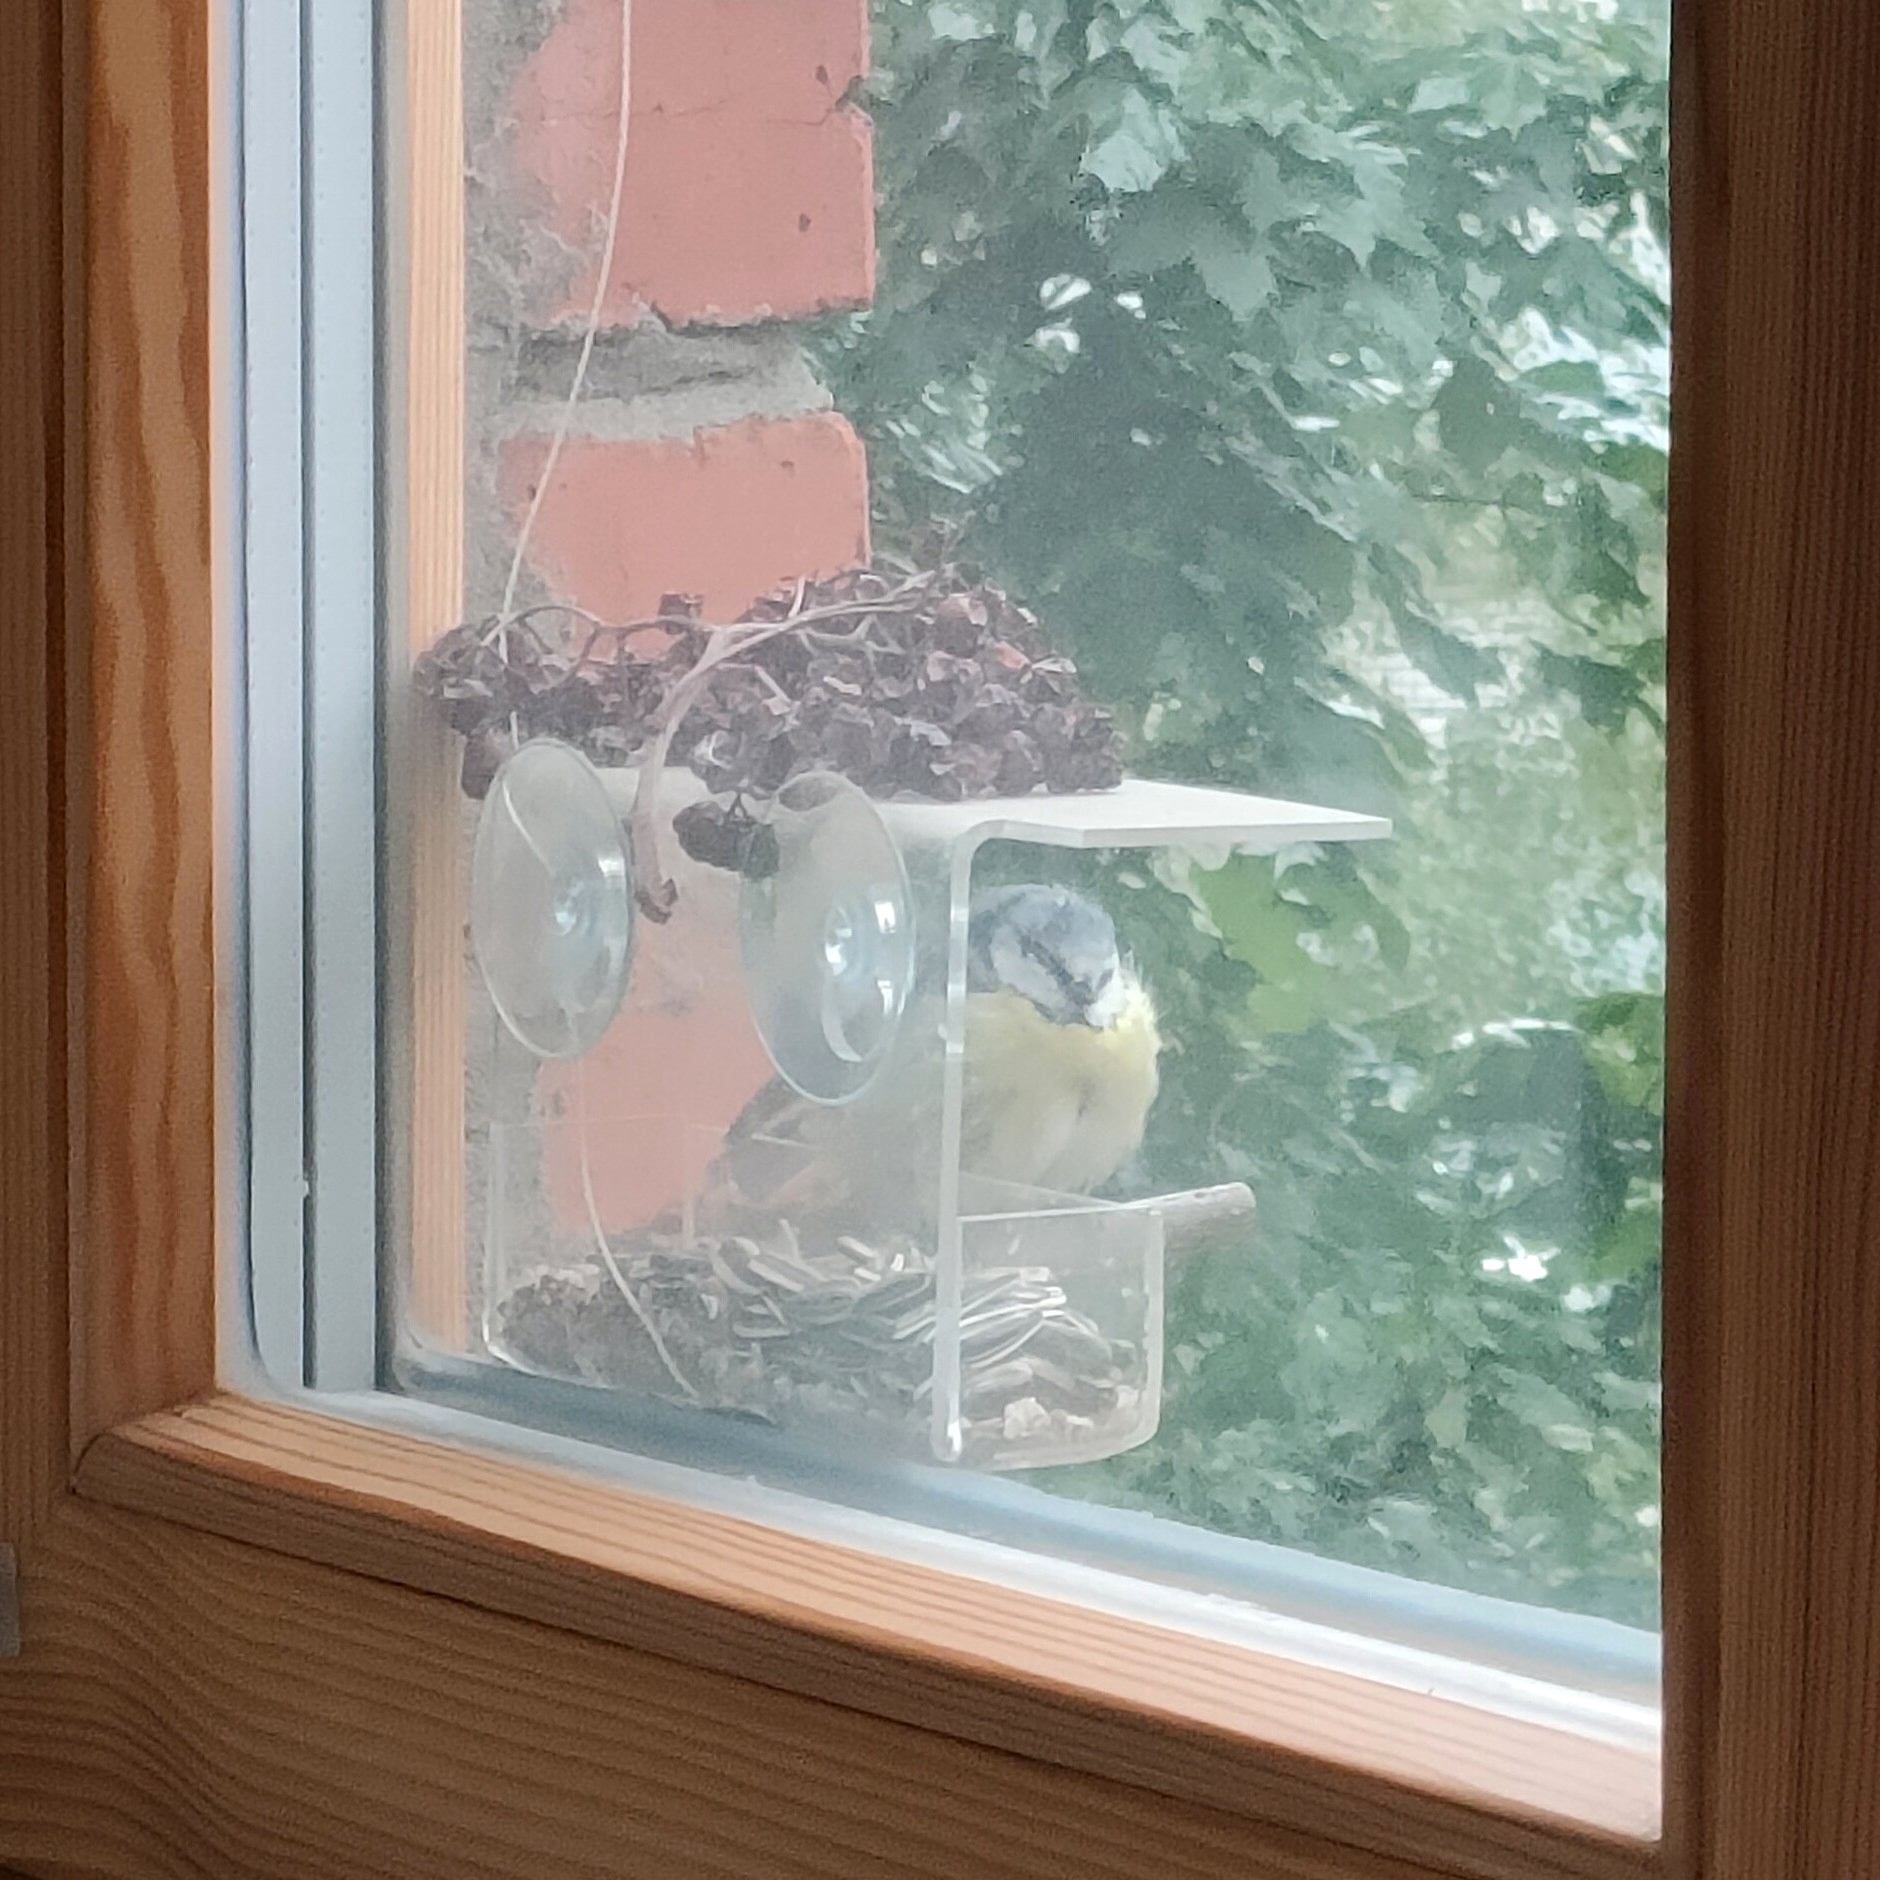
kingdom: Animalia
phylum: Chordata
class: Aves
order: Passeriformes
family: Paridae
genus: Cyanistes
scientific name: Cyanistes caeruleus
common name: Eurasian blue tit
